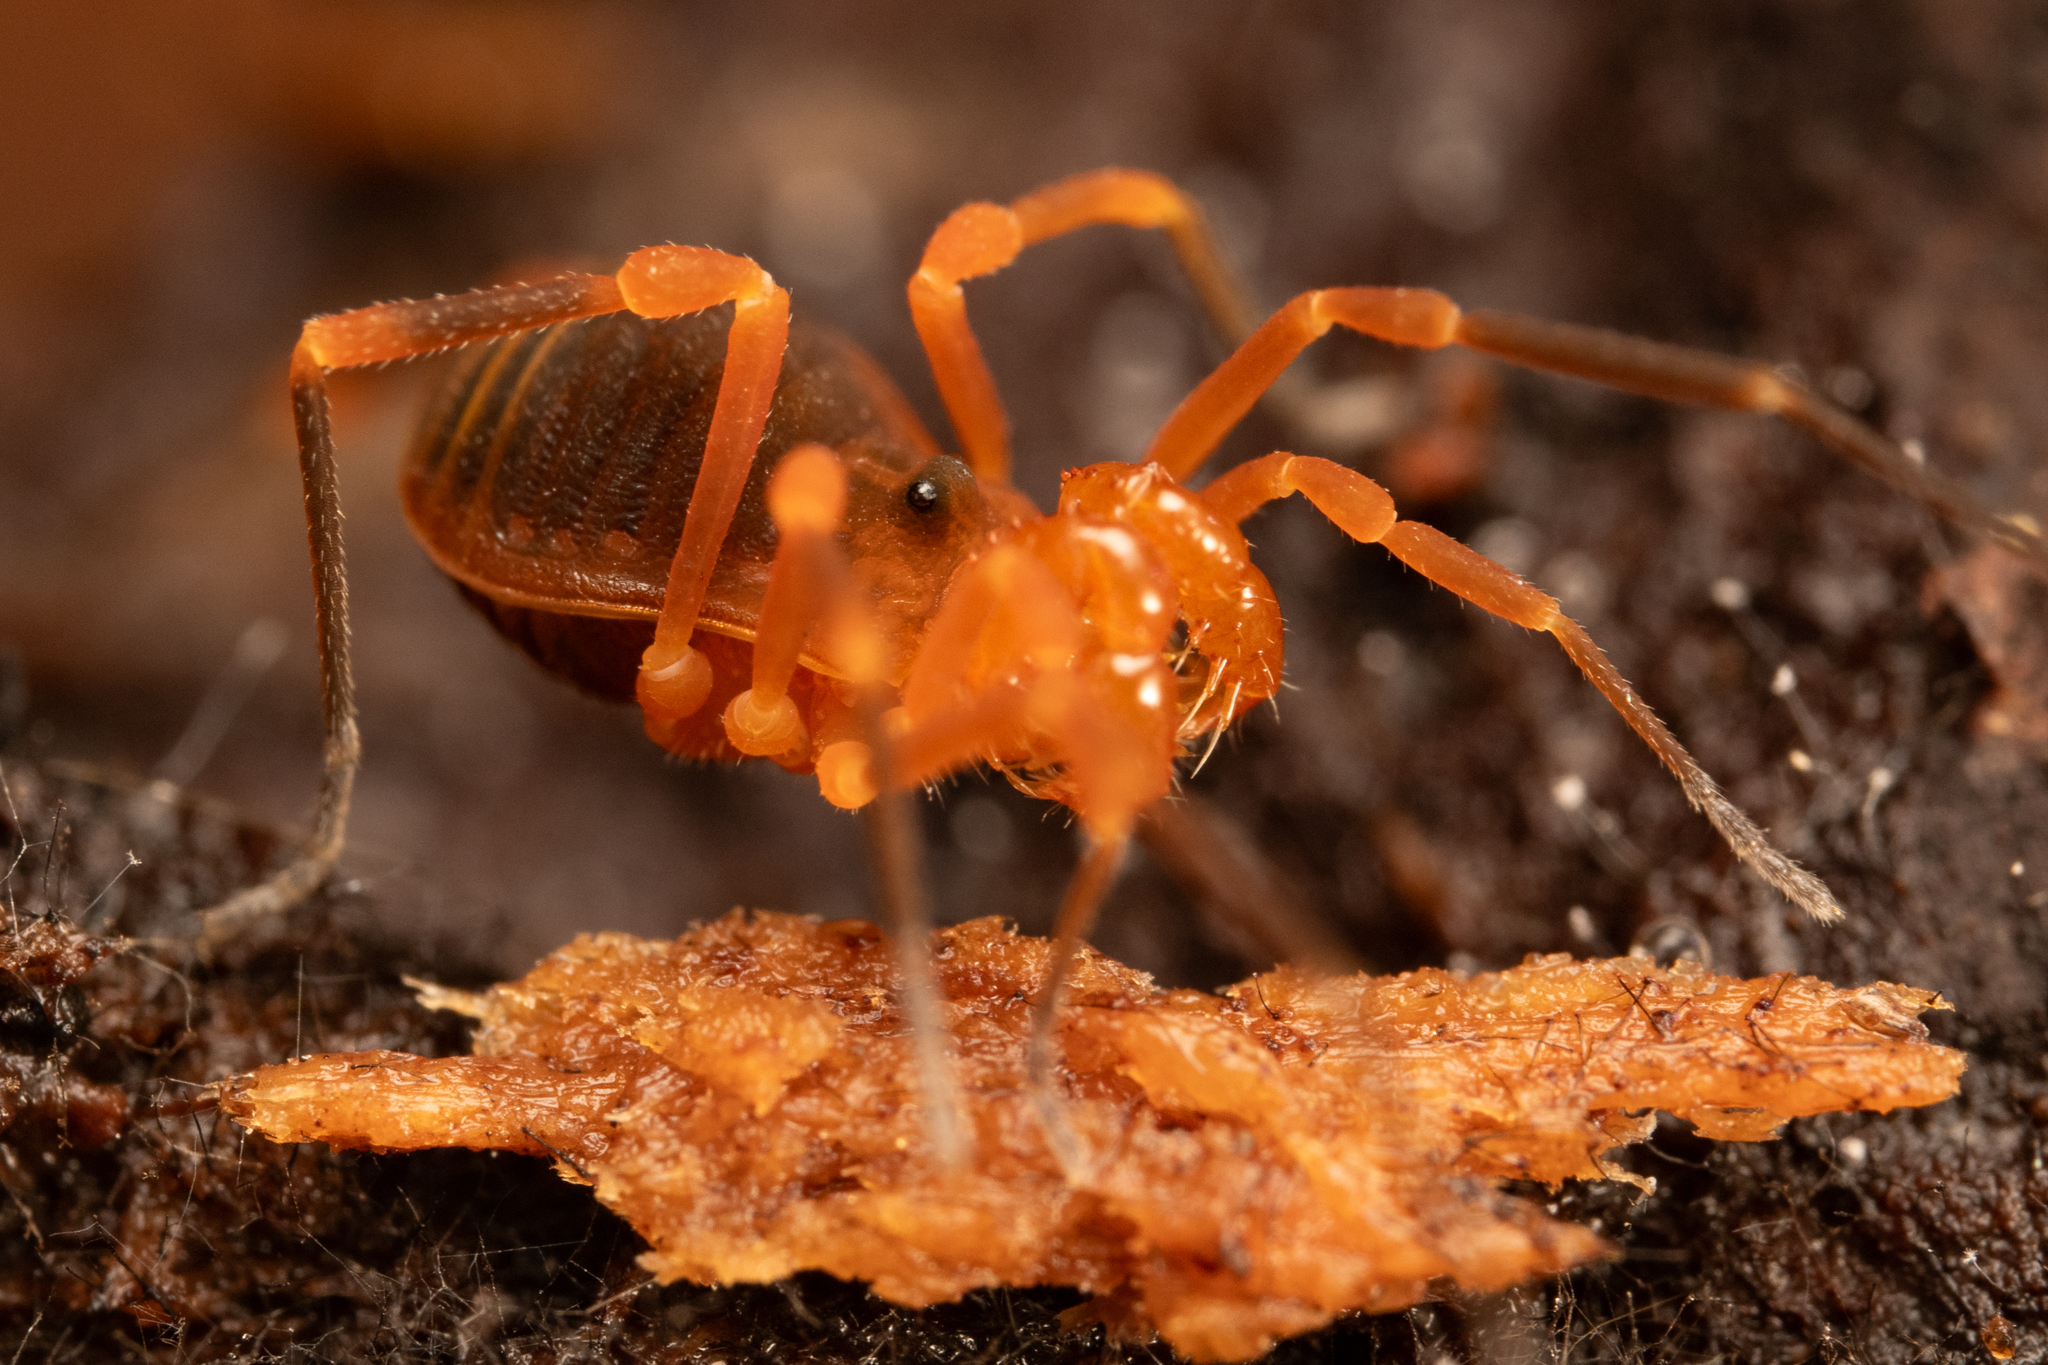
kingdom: Animalia
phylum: Arthropoda
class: Arachnida
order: Opiliones
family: Paranonychidae
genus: Sclerobunus
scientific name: Sclerobunus idahoensis
